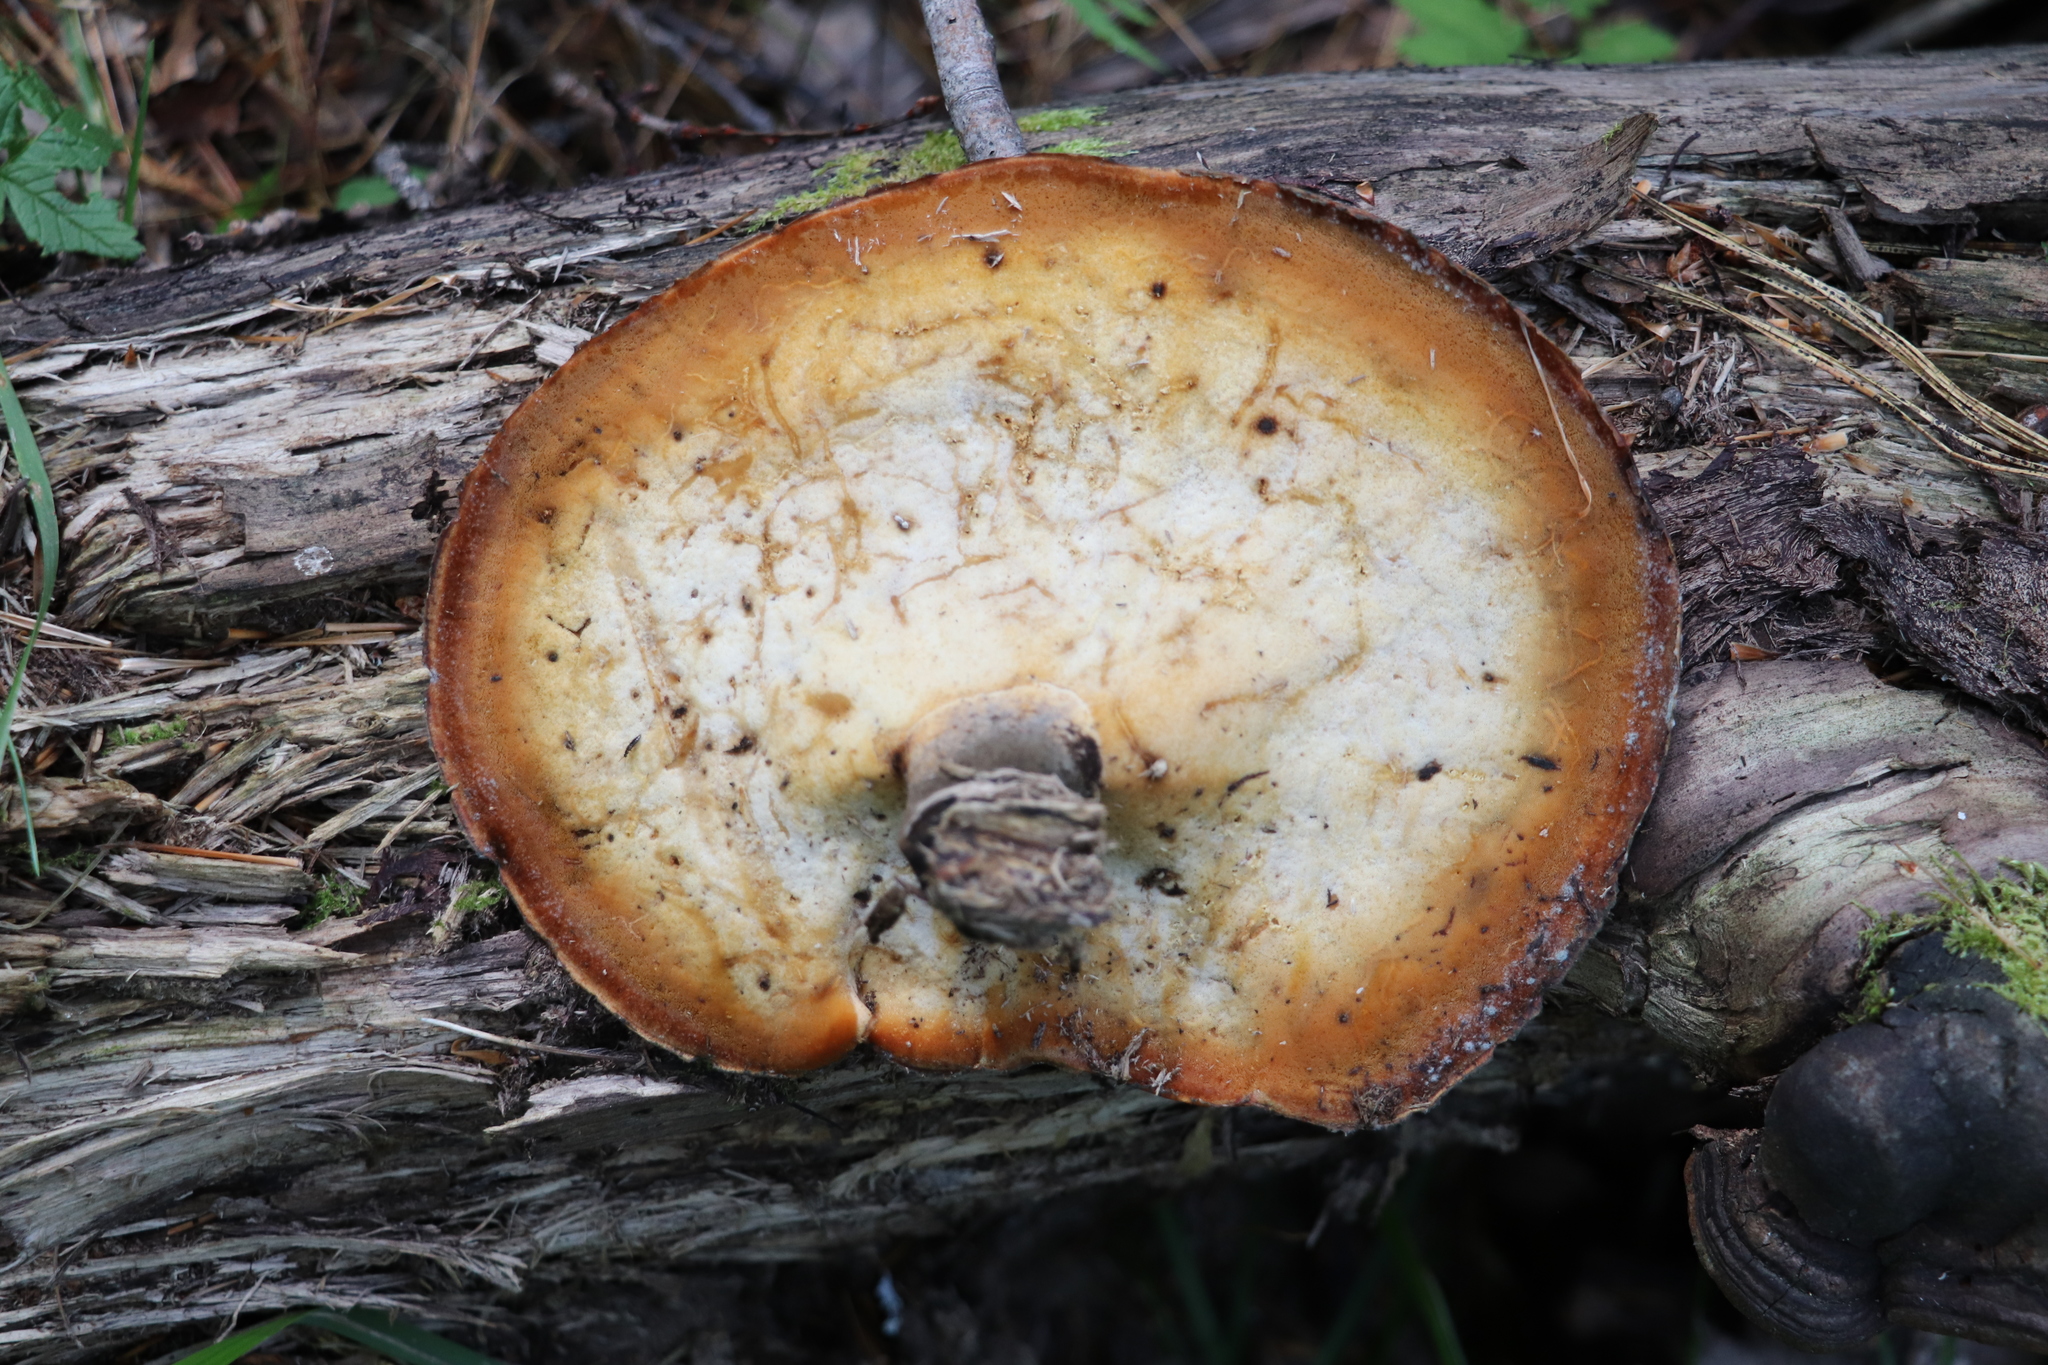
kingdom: Fungi
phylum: Basidiomycota
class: Agaricomycetes
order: Polyporales
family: Polyporaceae
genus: Picipes
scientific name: Picipes badius
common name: Bay polypore
